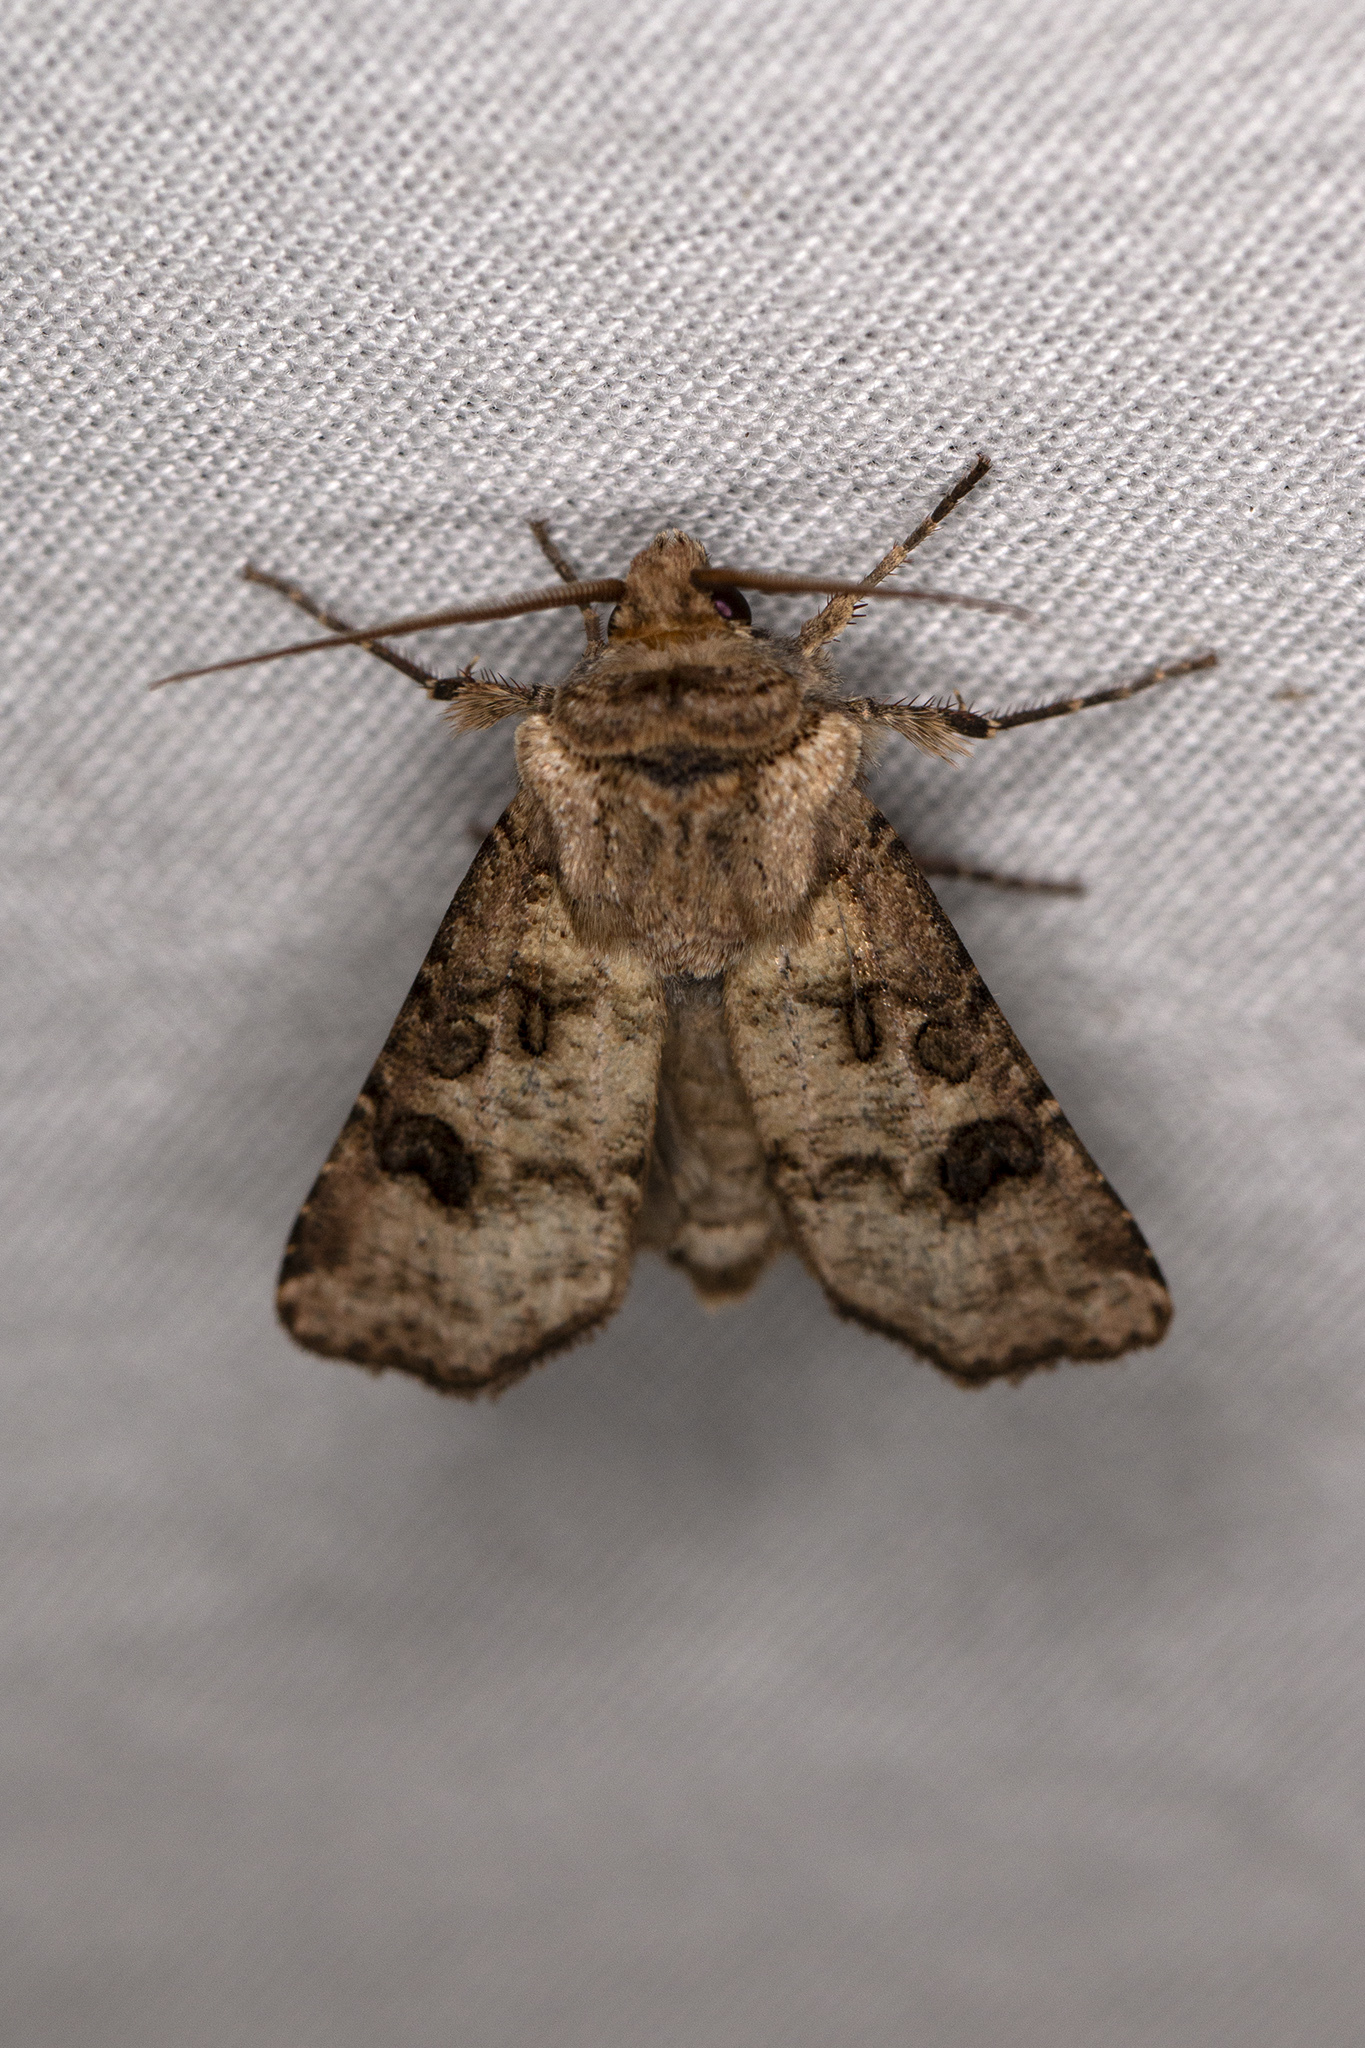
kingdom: Animalia
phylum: Arthropoda
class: Insecta
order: Lepidoptera
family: Noctuidae
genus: Agrotis
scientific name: Agrotis clavis
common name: Heart and club
